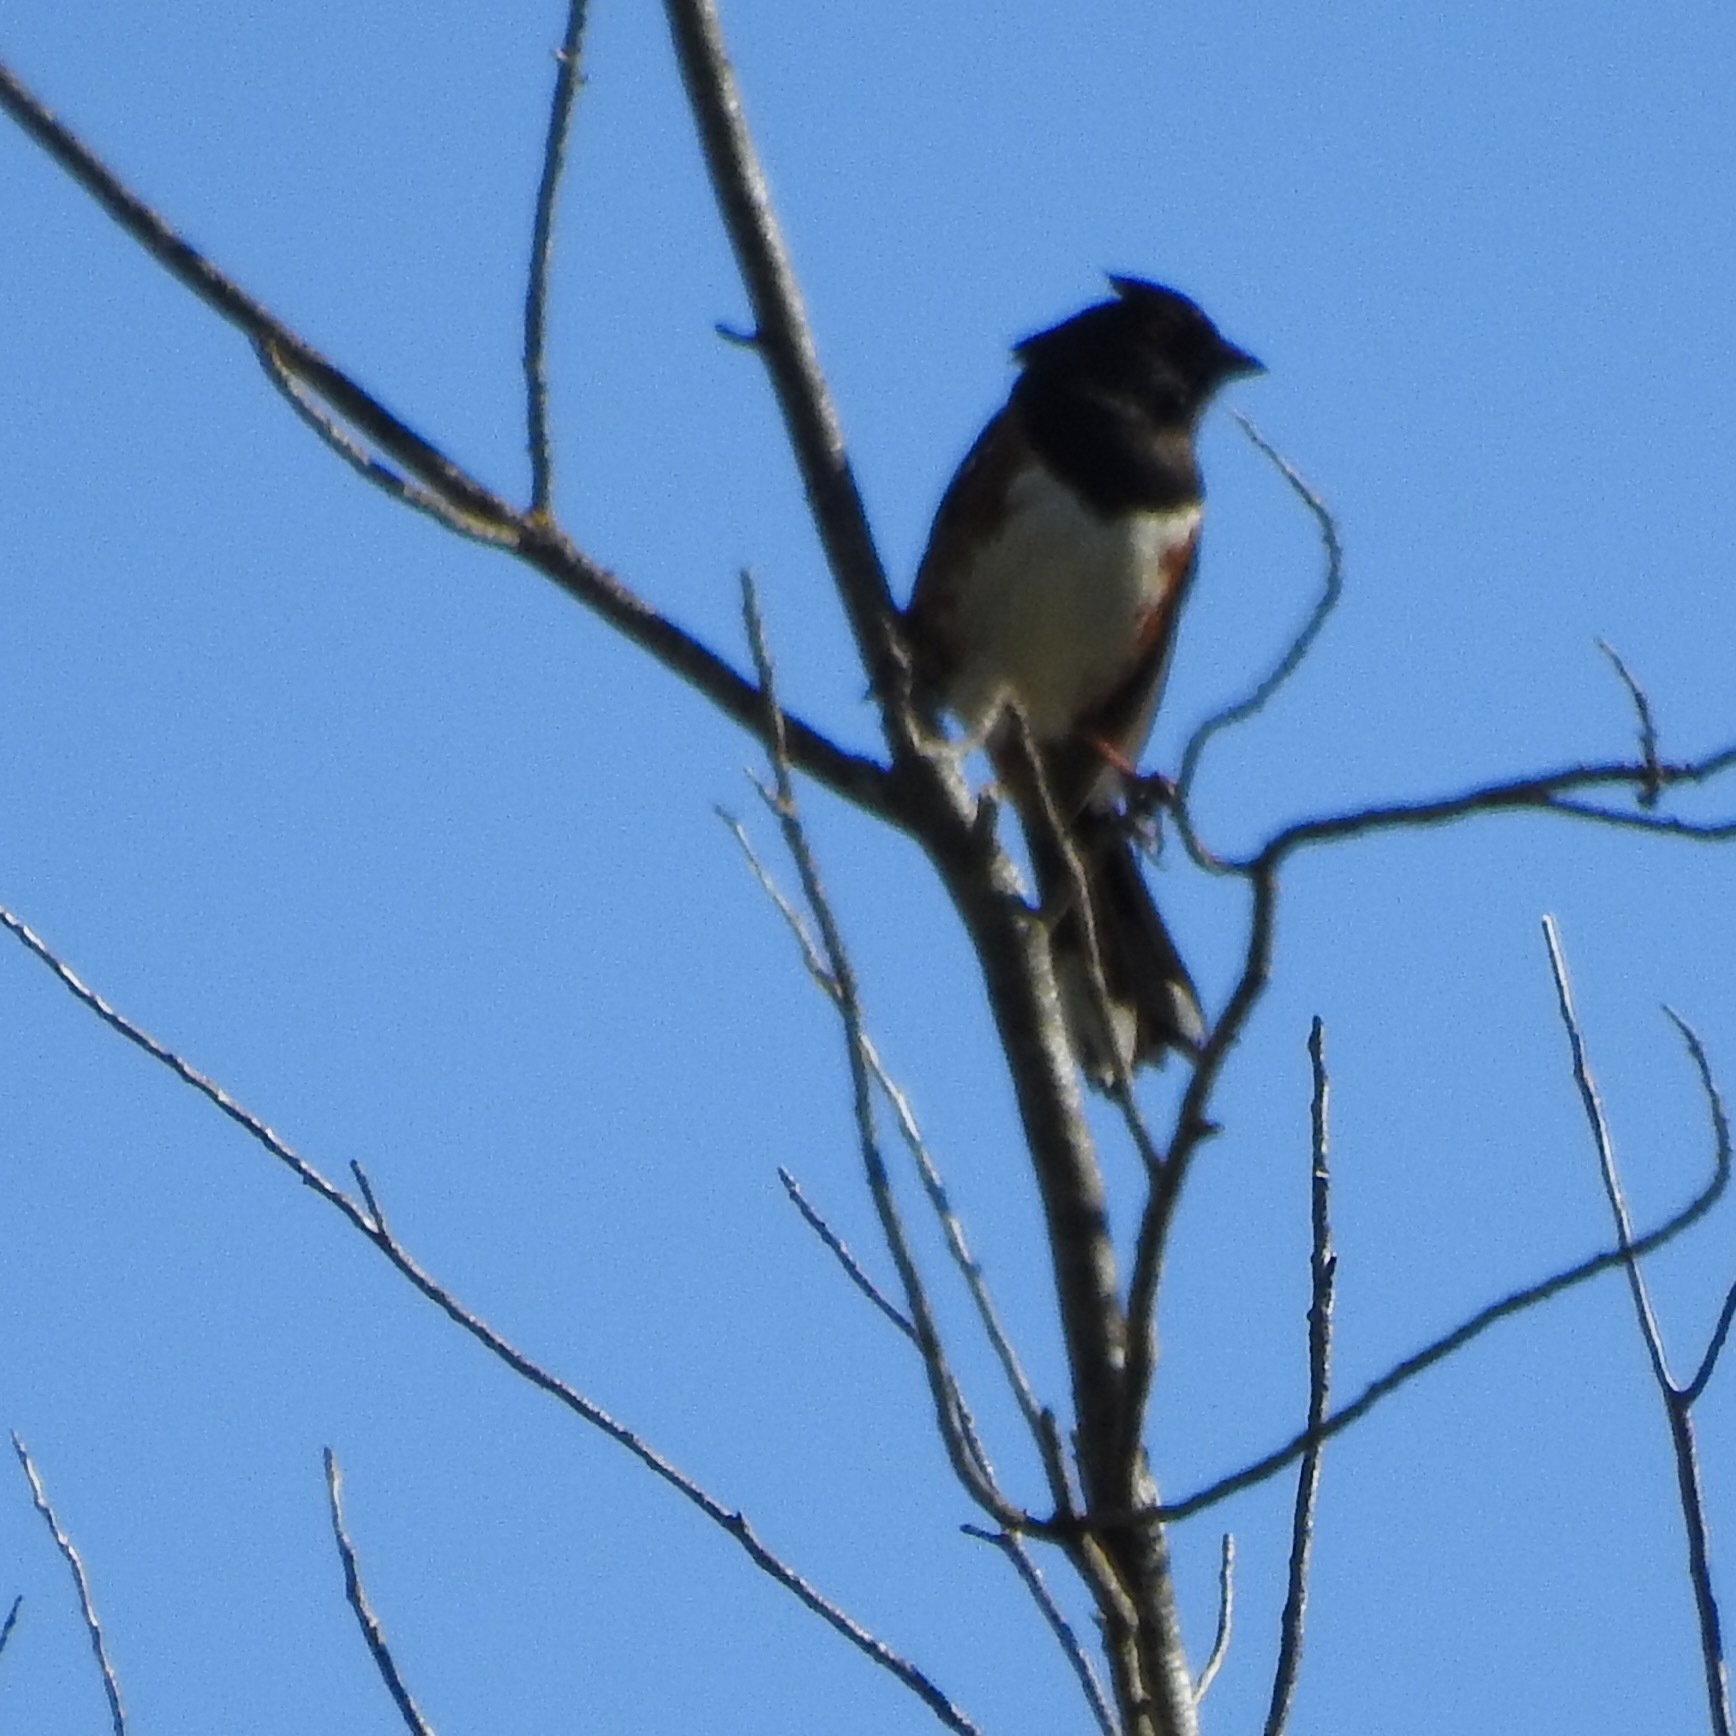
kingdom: Animalia
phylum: Chordata
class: Aves
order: Passeriformes
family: Passerellidae
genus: Pipilo
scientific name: Pipilo maculatus
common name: Spotted towhee
